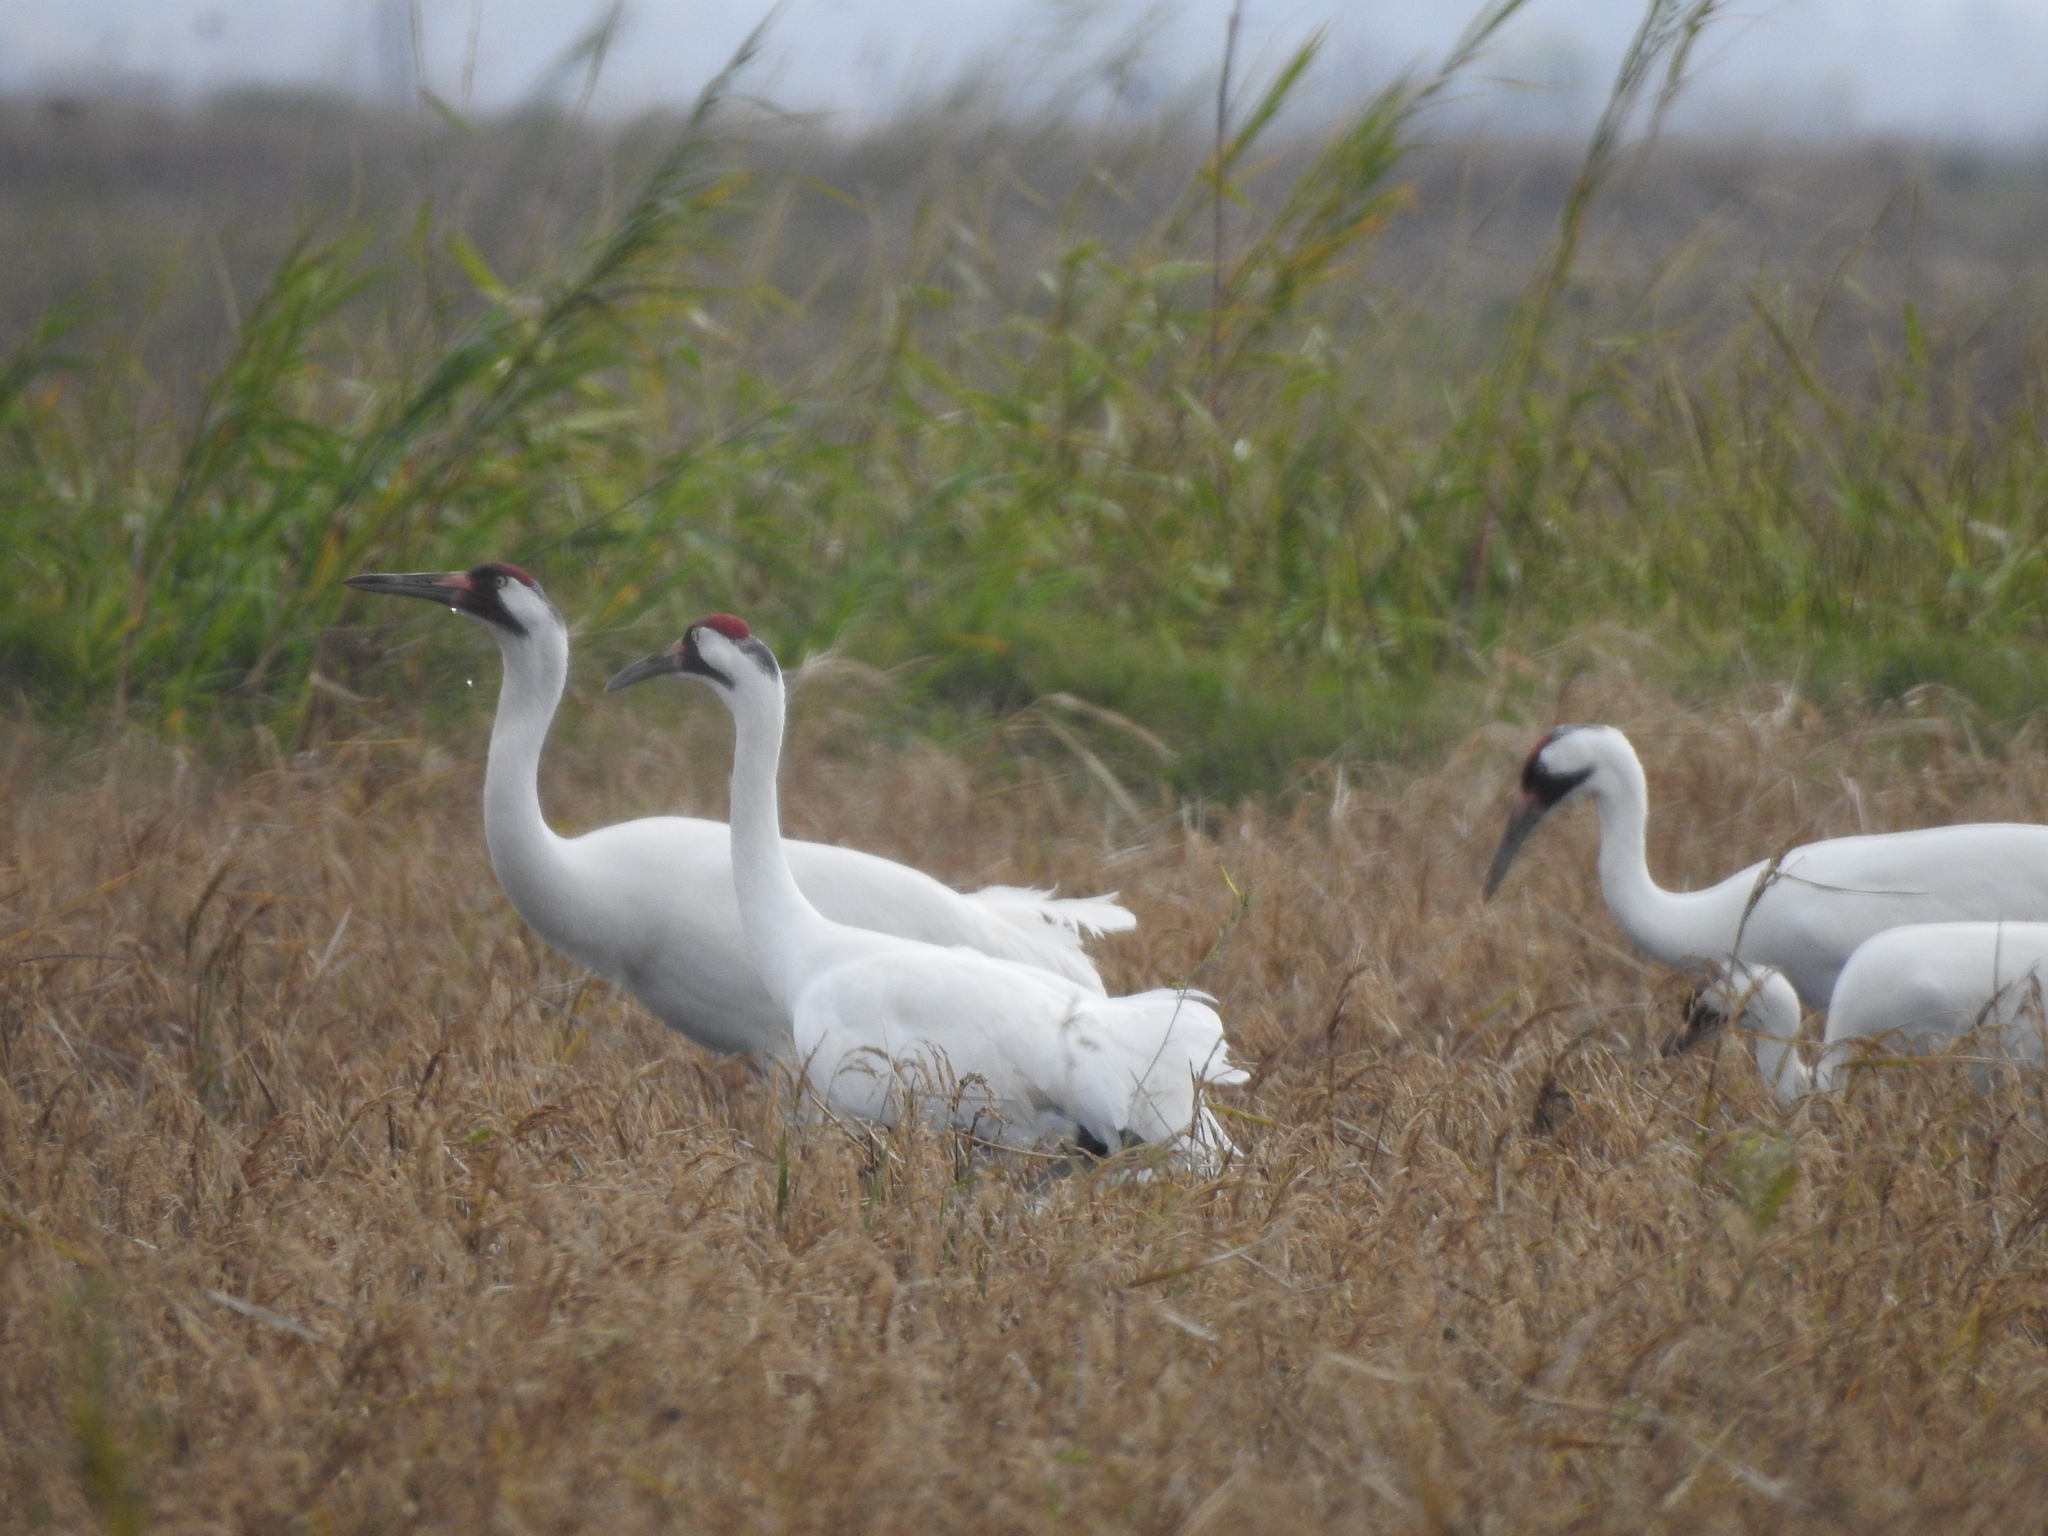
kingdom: Animalia
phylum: Chordata
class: Aves
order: Gruiformes
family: Gruidae
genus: Grus
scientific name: Grus americana
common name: Whooping crane
